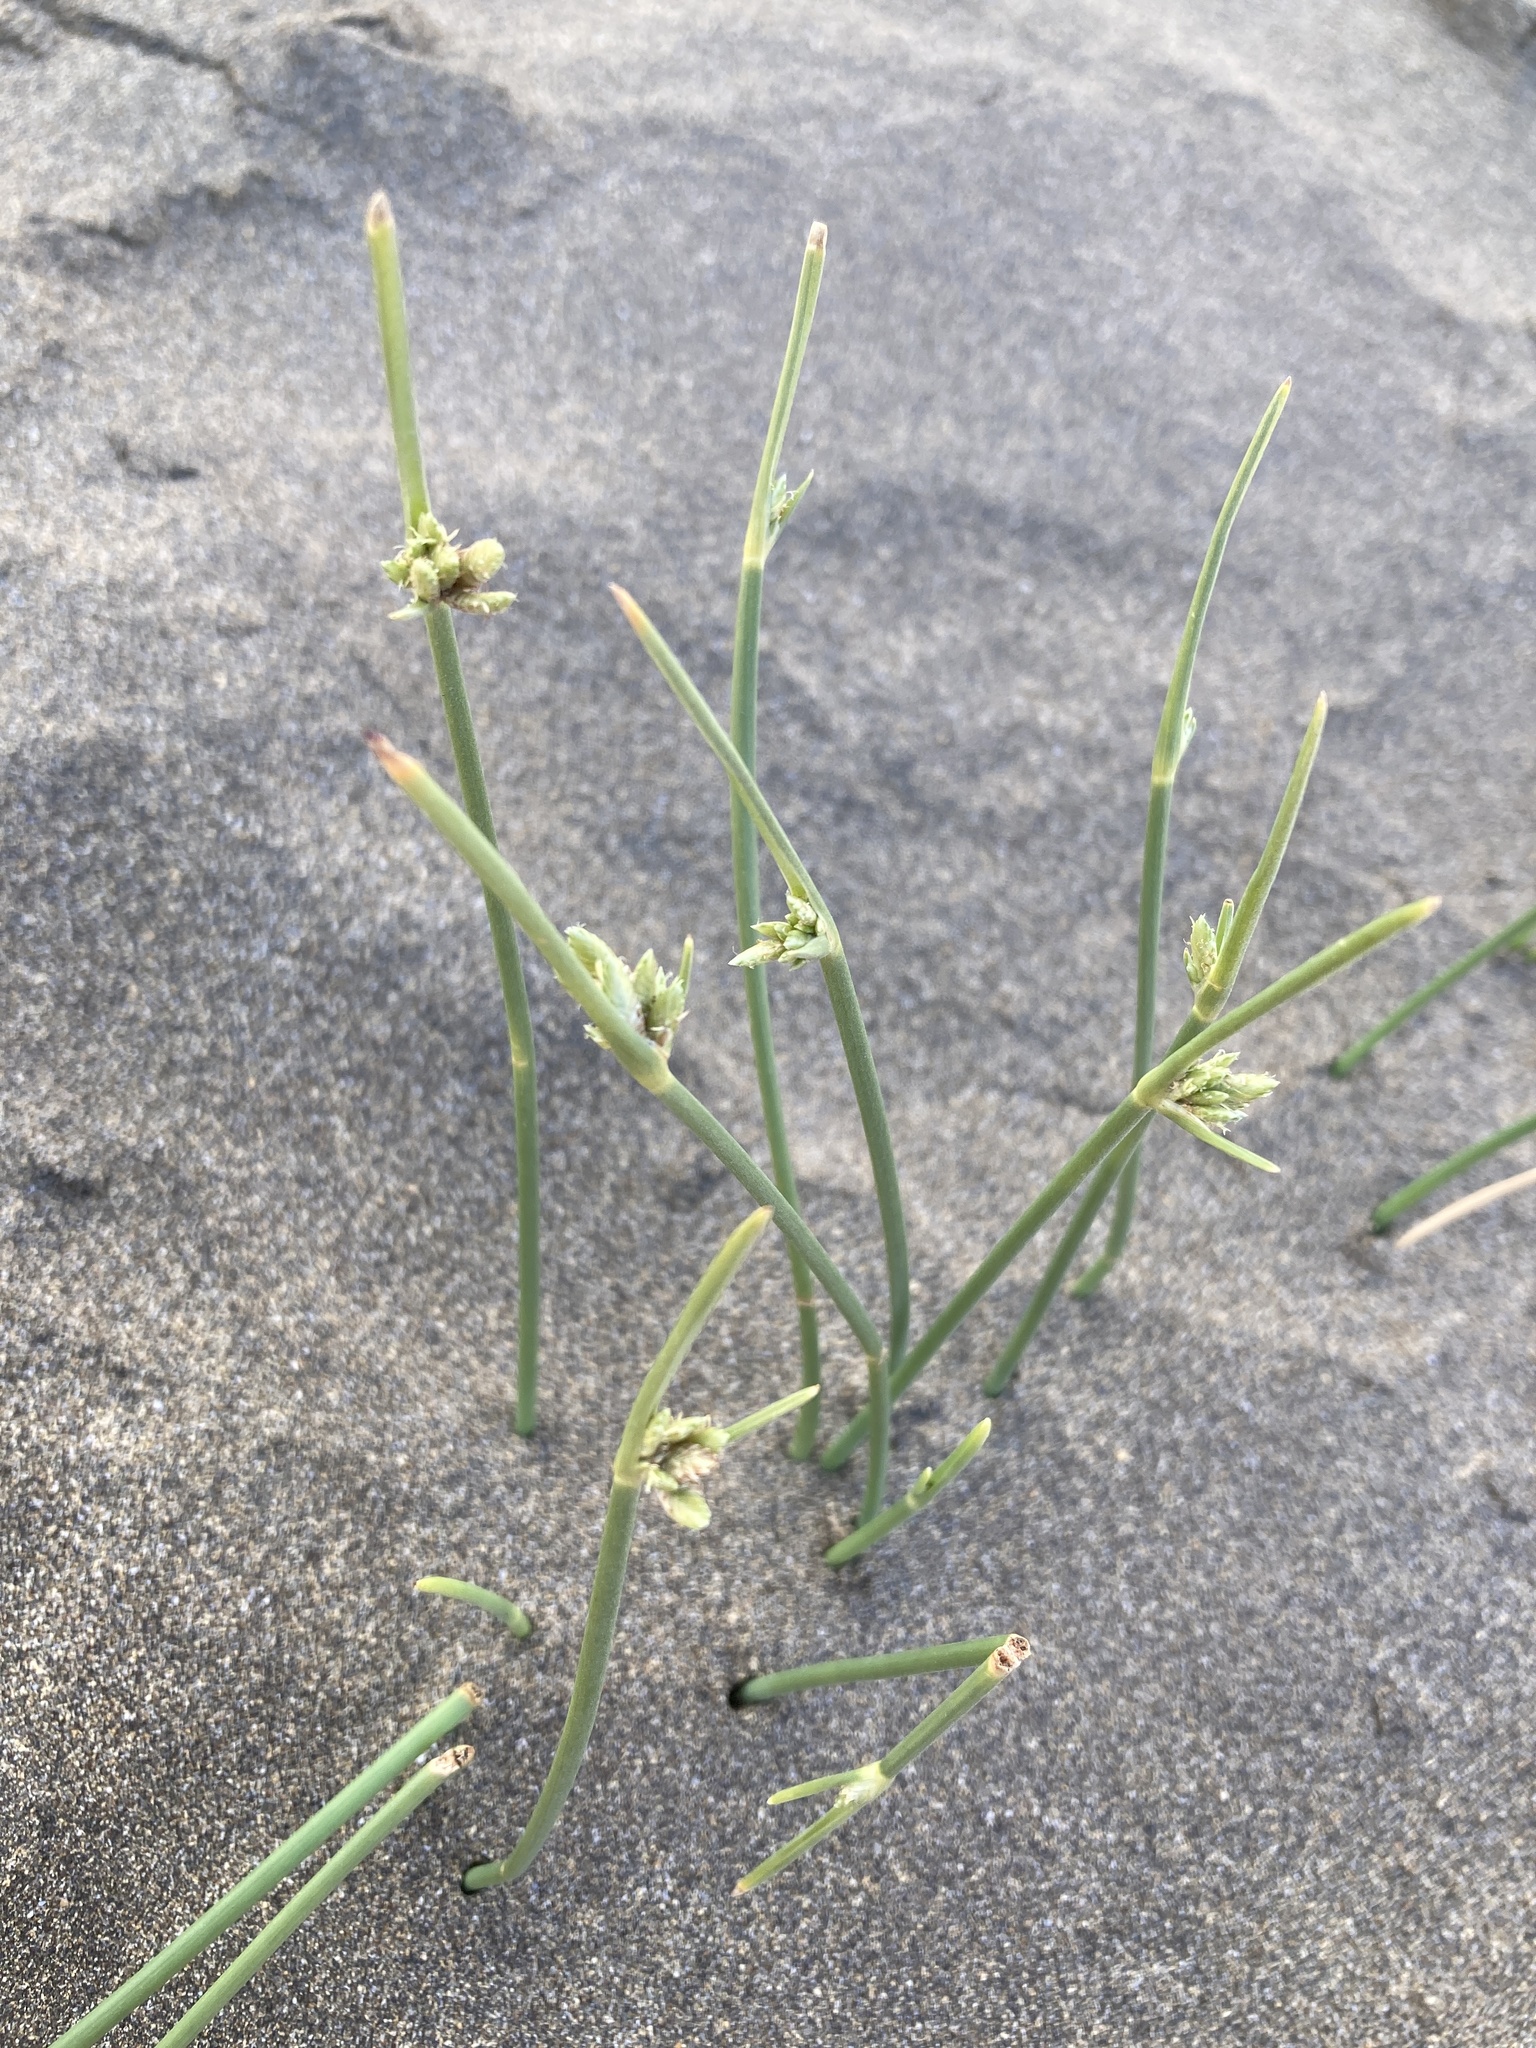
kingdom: Plantae
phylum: Tracheophyta
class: Liliopsida
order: Poales
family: Cyperaceae
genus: Cyperus
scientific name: Cyperus laevigatus
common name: Smooth flat sedge
